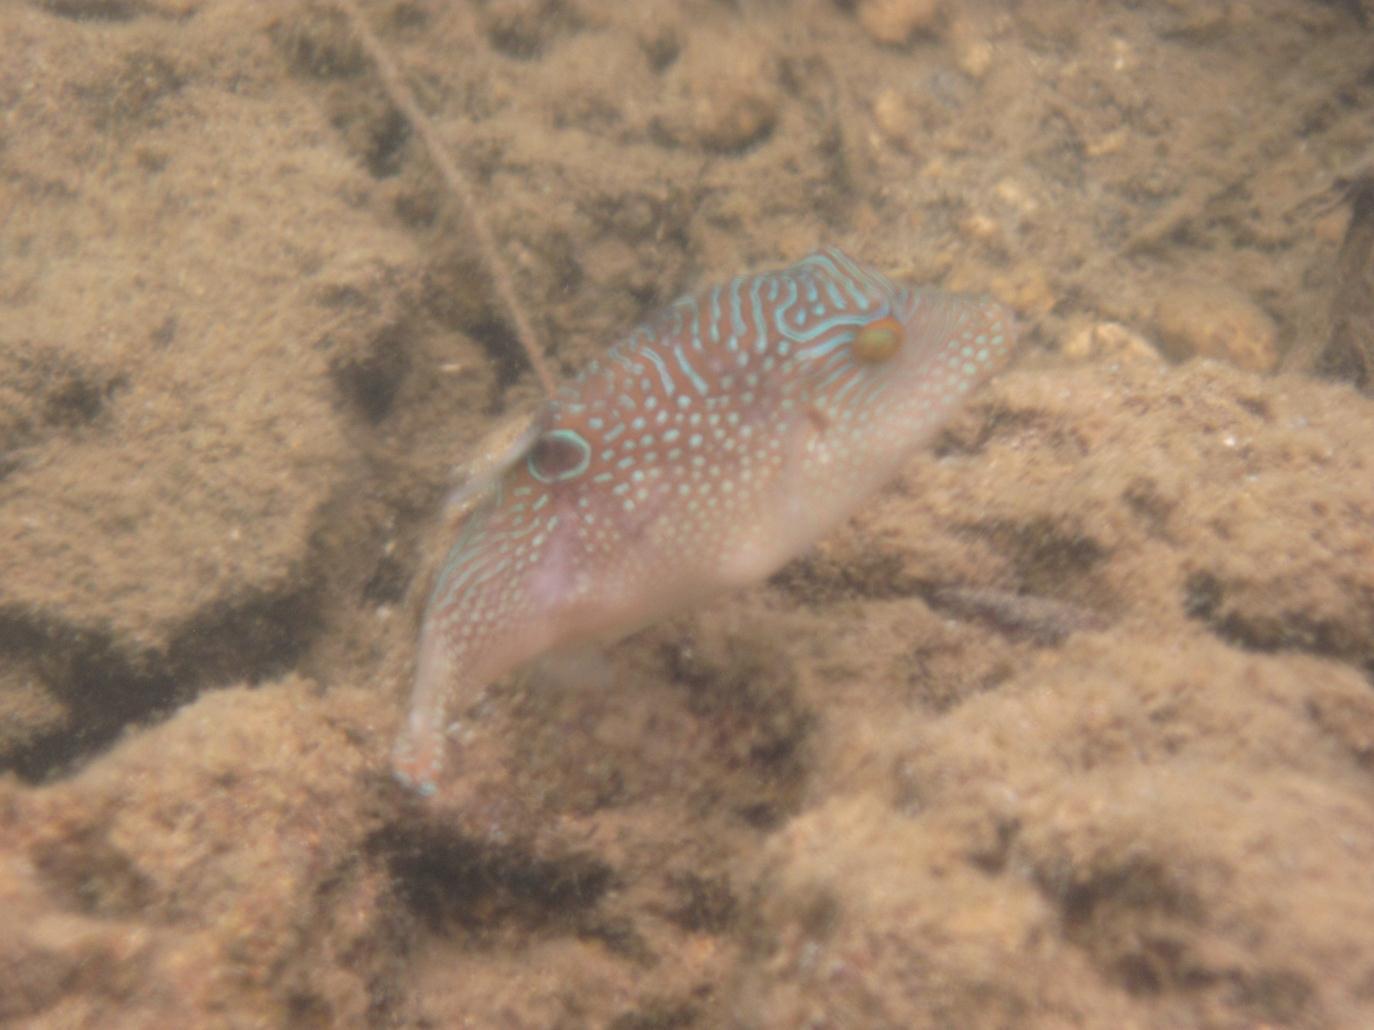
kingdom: Animalia
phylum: Chordata
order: Tetraodontiformes
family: Tetraodontidae
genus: Canthigaster
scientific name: Canthigaster petersii
